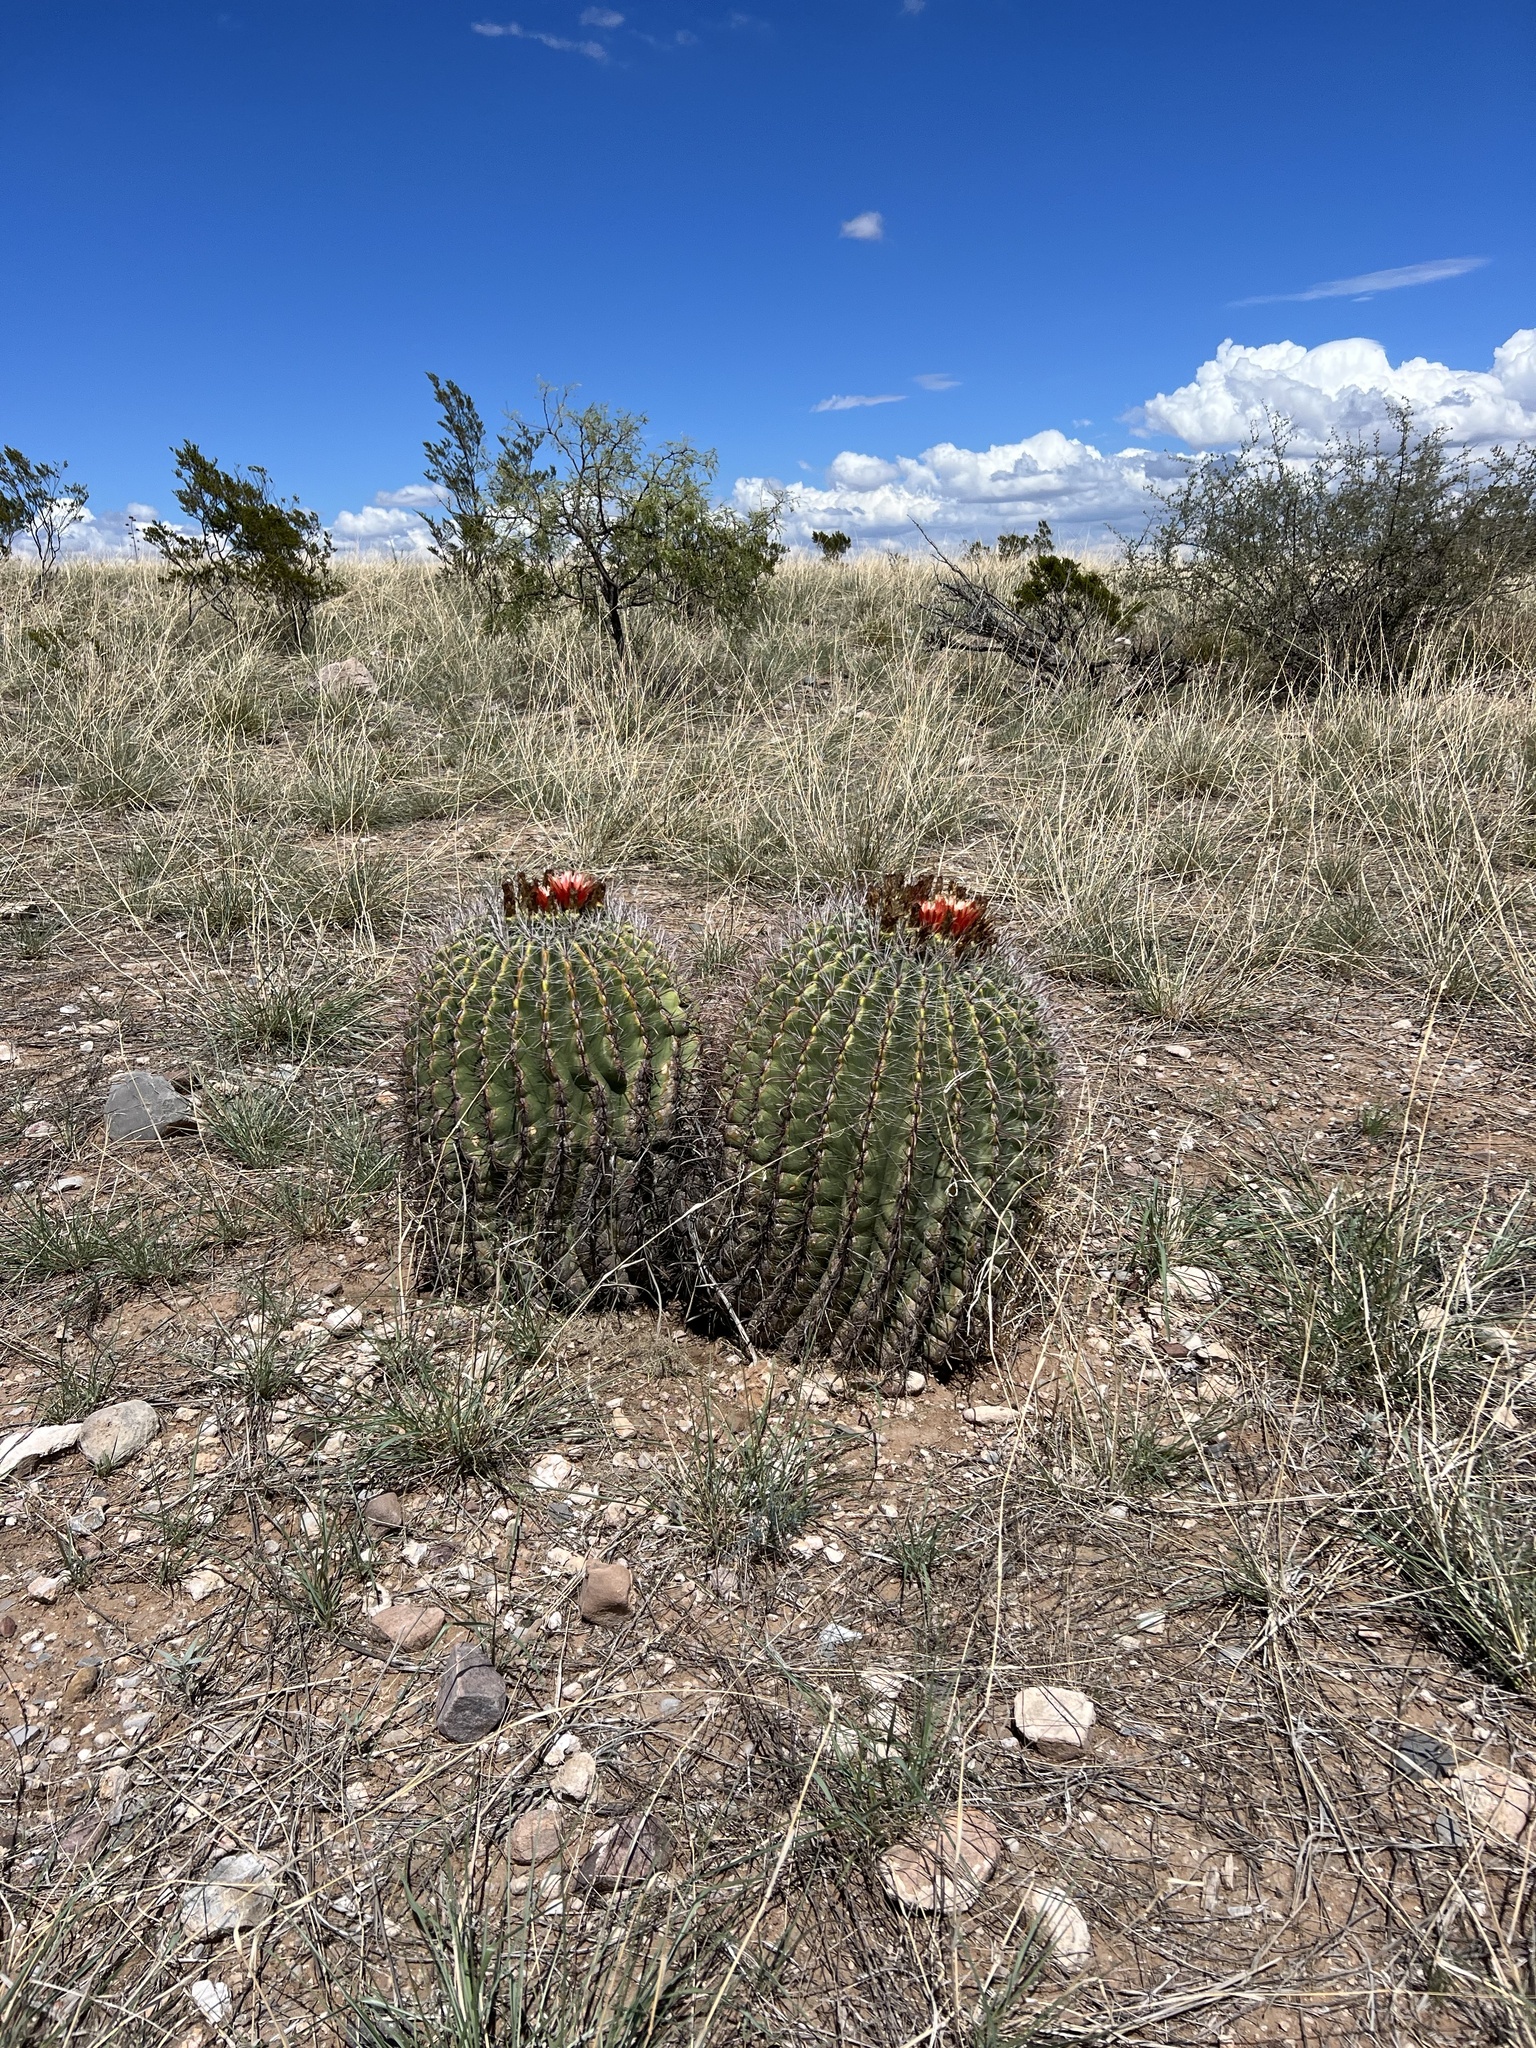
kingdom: Plantae
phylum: Tracheophyta
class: Magnoliopsida
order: Caryophyllales
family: Cactaceae
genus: Ferocactus
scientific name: Ferocactus wislizeni
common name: Candy barrel cactus
